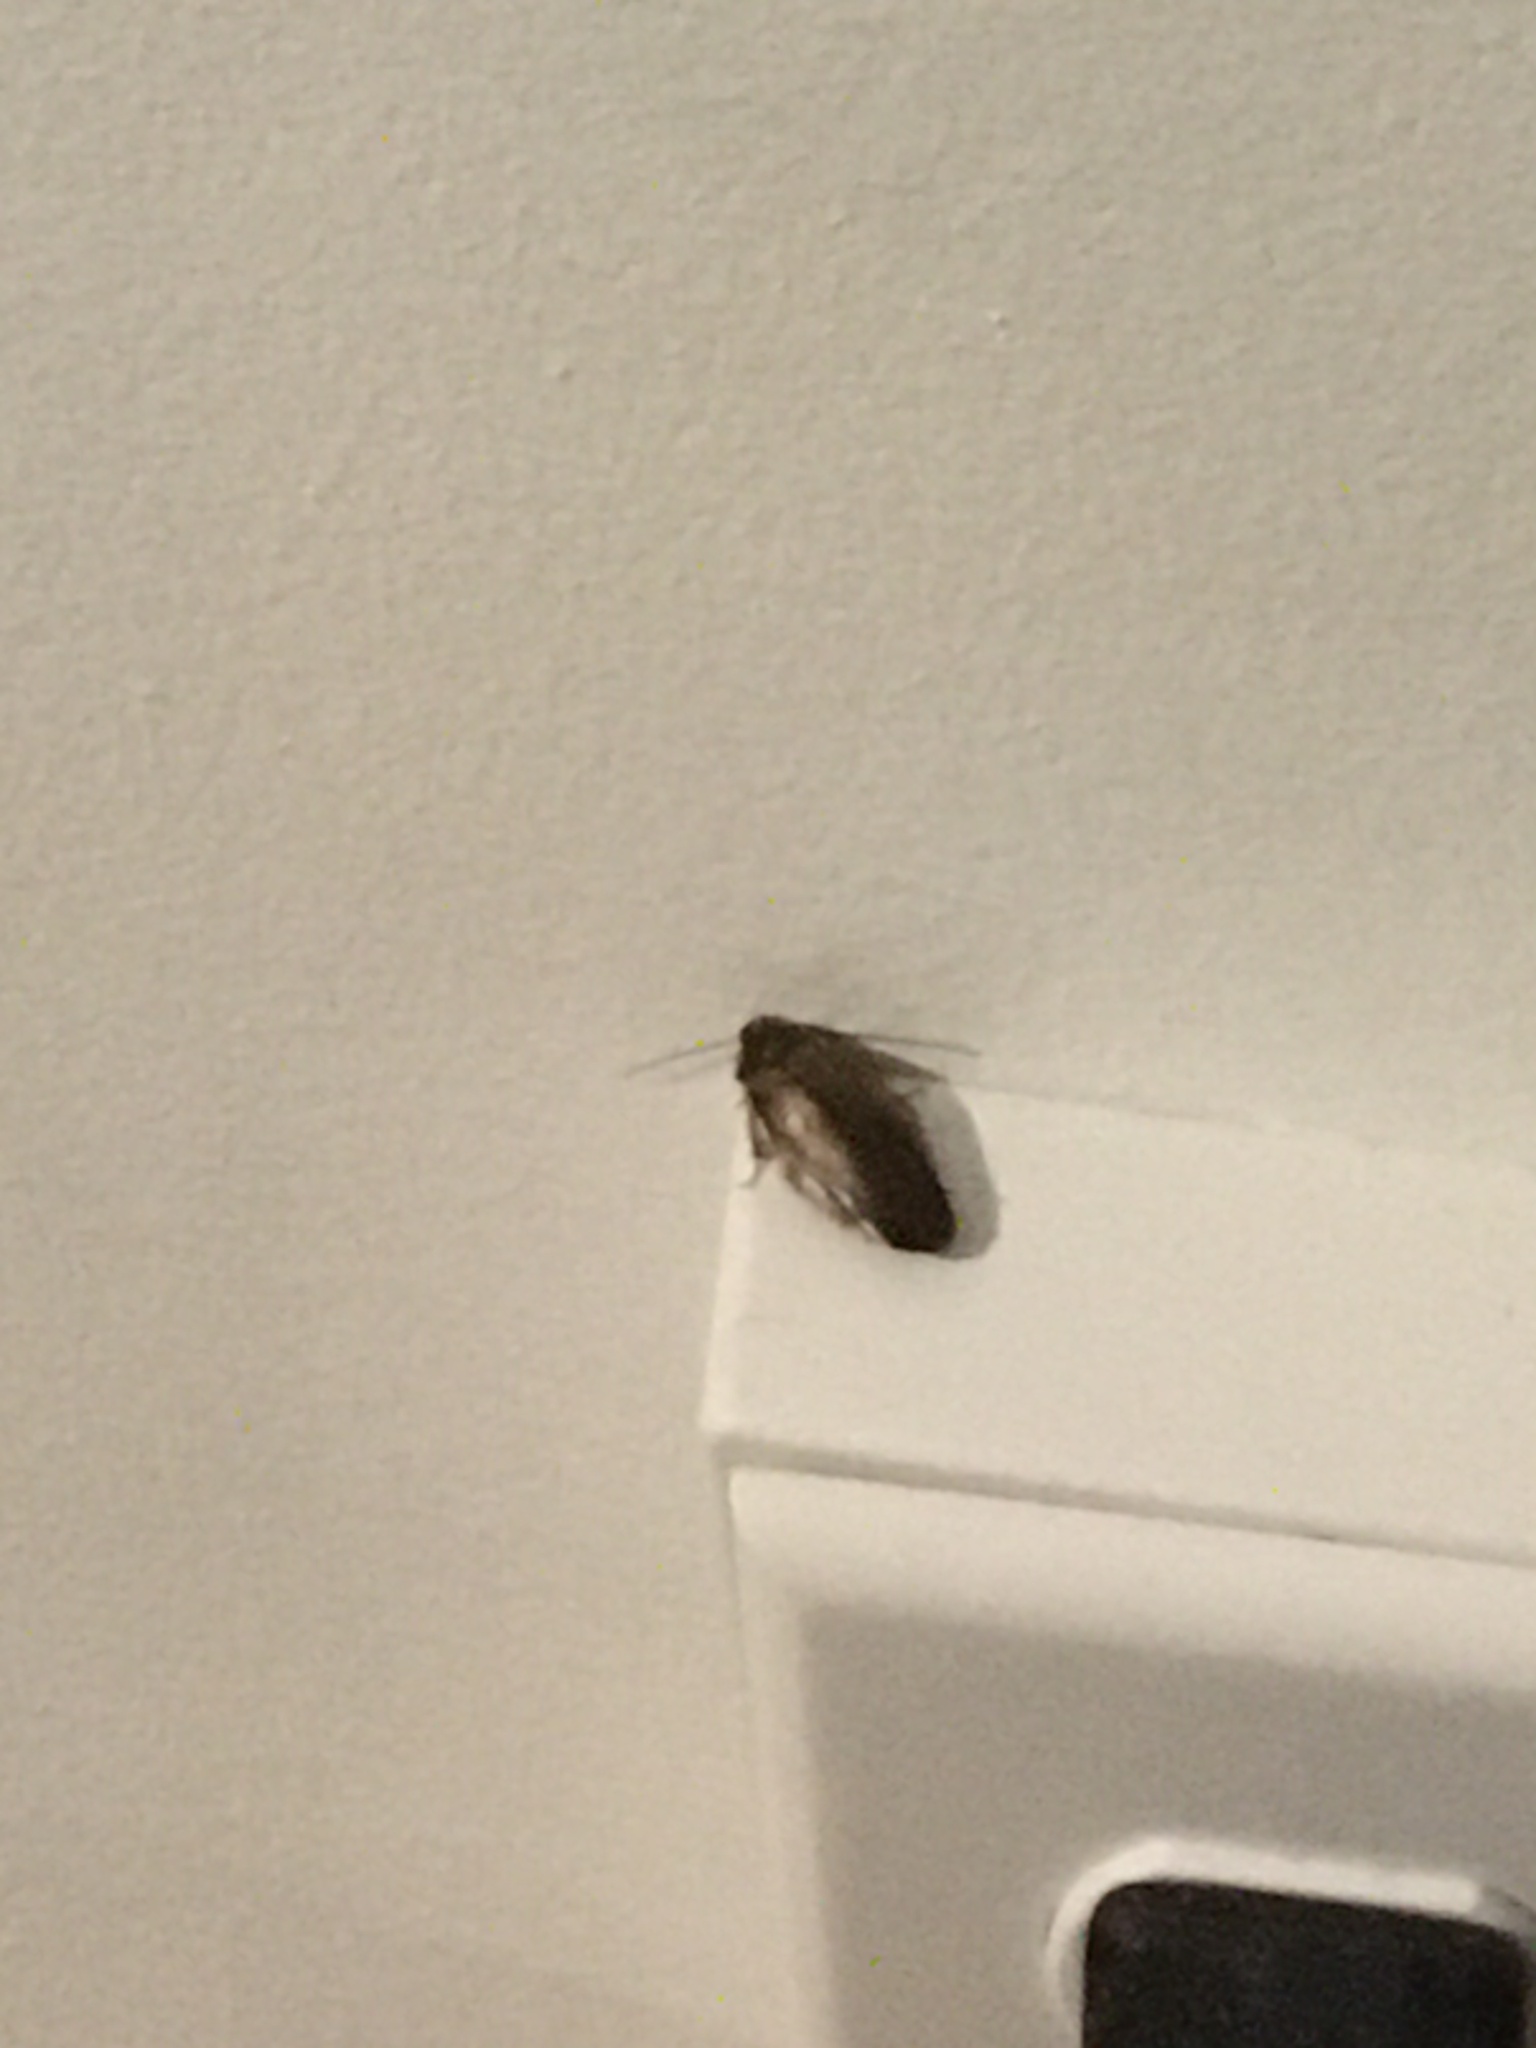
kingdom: Animalia
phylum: Arthropoda
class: Insecta
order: Blattodea
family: Blaberidae
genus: Pycnoscelus
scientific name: Pycnoscelus indicus
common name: Burrowing cockroach
